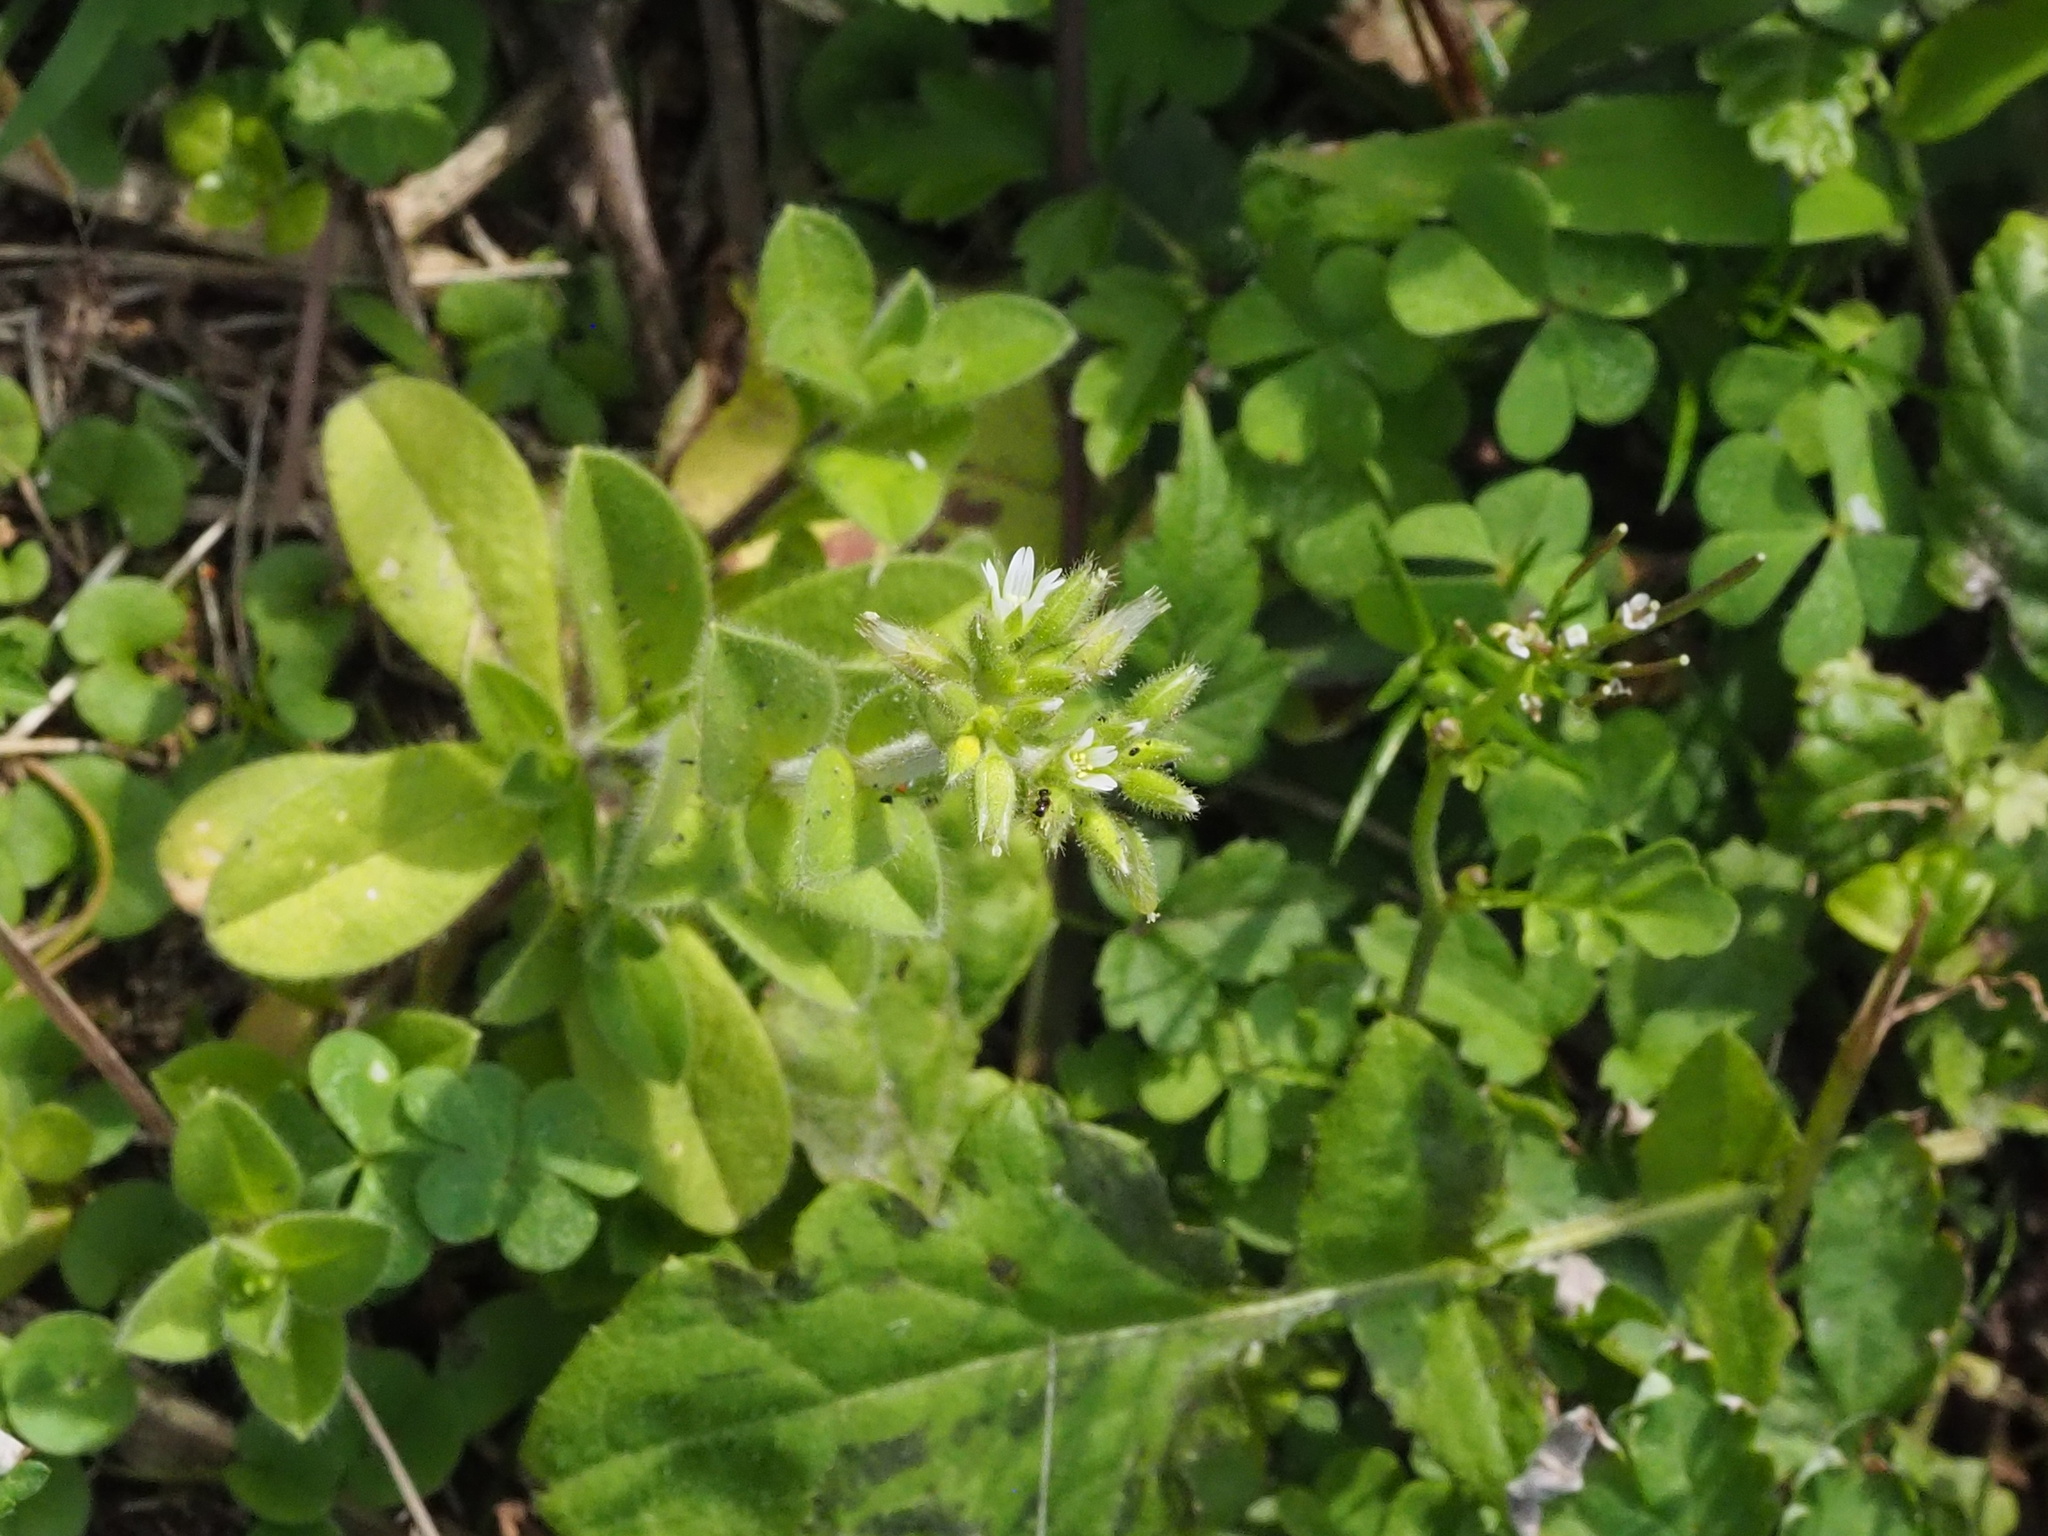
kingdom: Plantae
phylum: Tracheophyta
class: Magnoliopsida
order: Caryophyllales
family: Caryophyllaceae
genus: Cerastium
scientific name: Cerastium glomeratum
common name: Sticky chickweed
